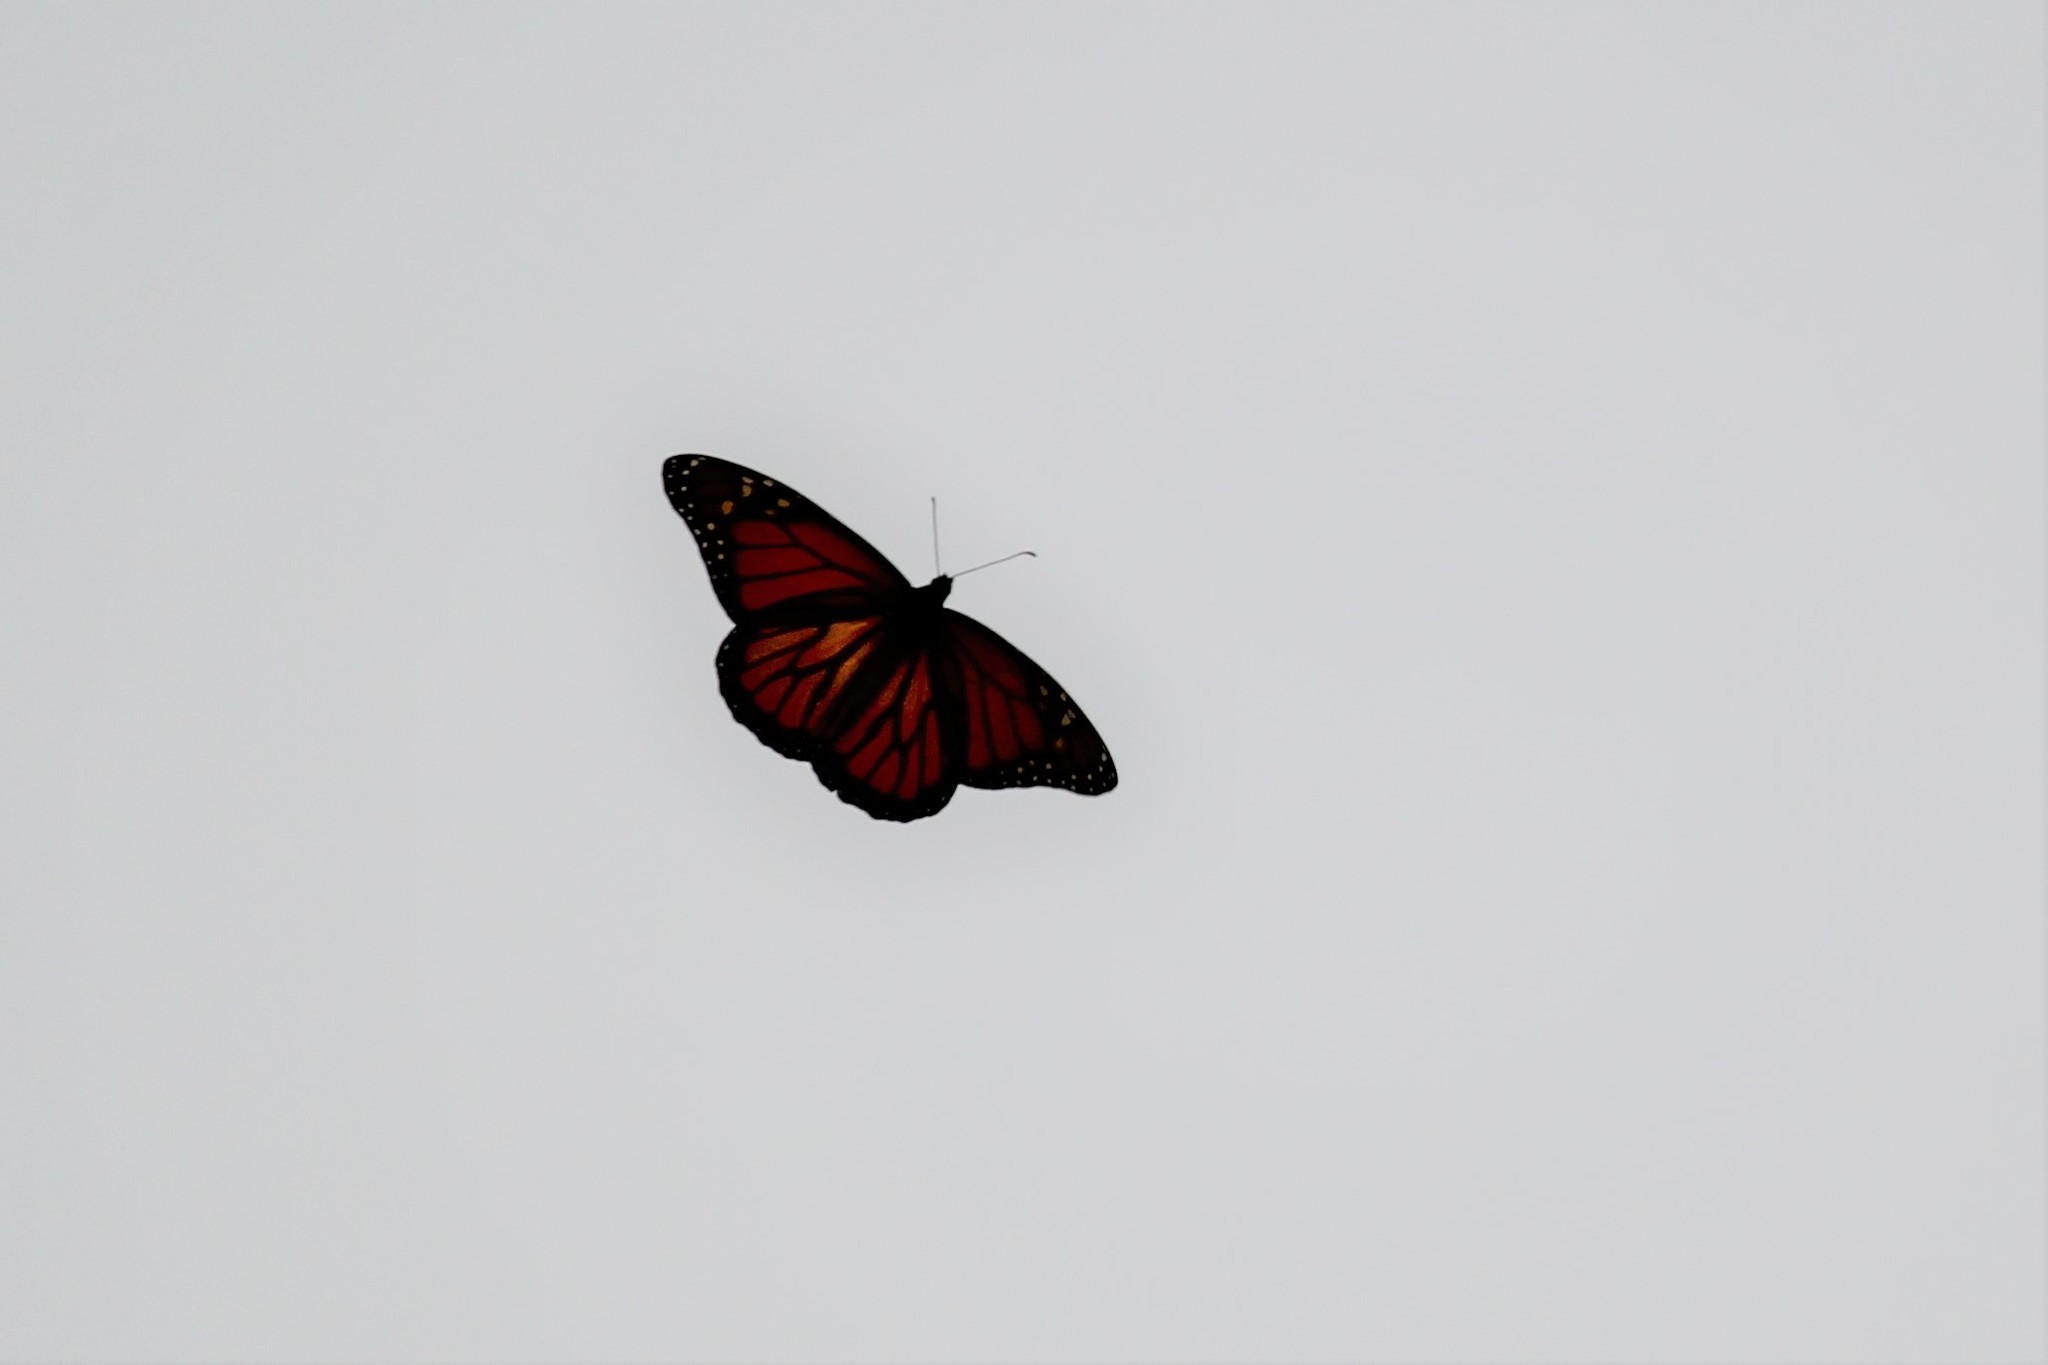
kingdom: Animalia
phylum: Arthropoda
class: Insecta
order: Lepidoptera
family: Nymphalidae
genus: Danaus
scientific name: Danaus plexippus
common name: Monarch
